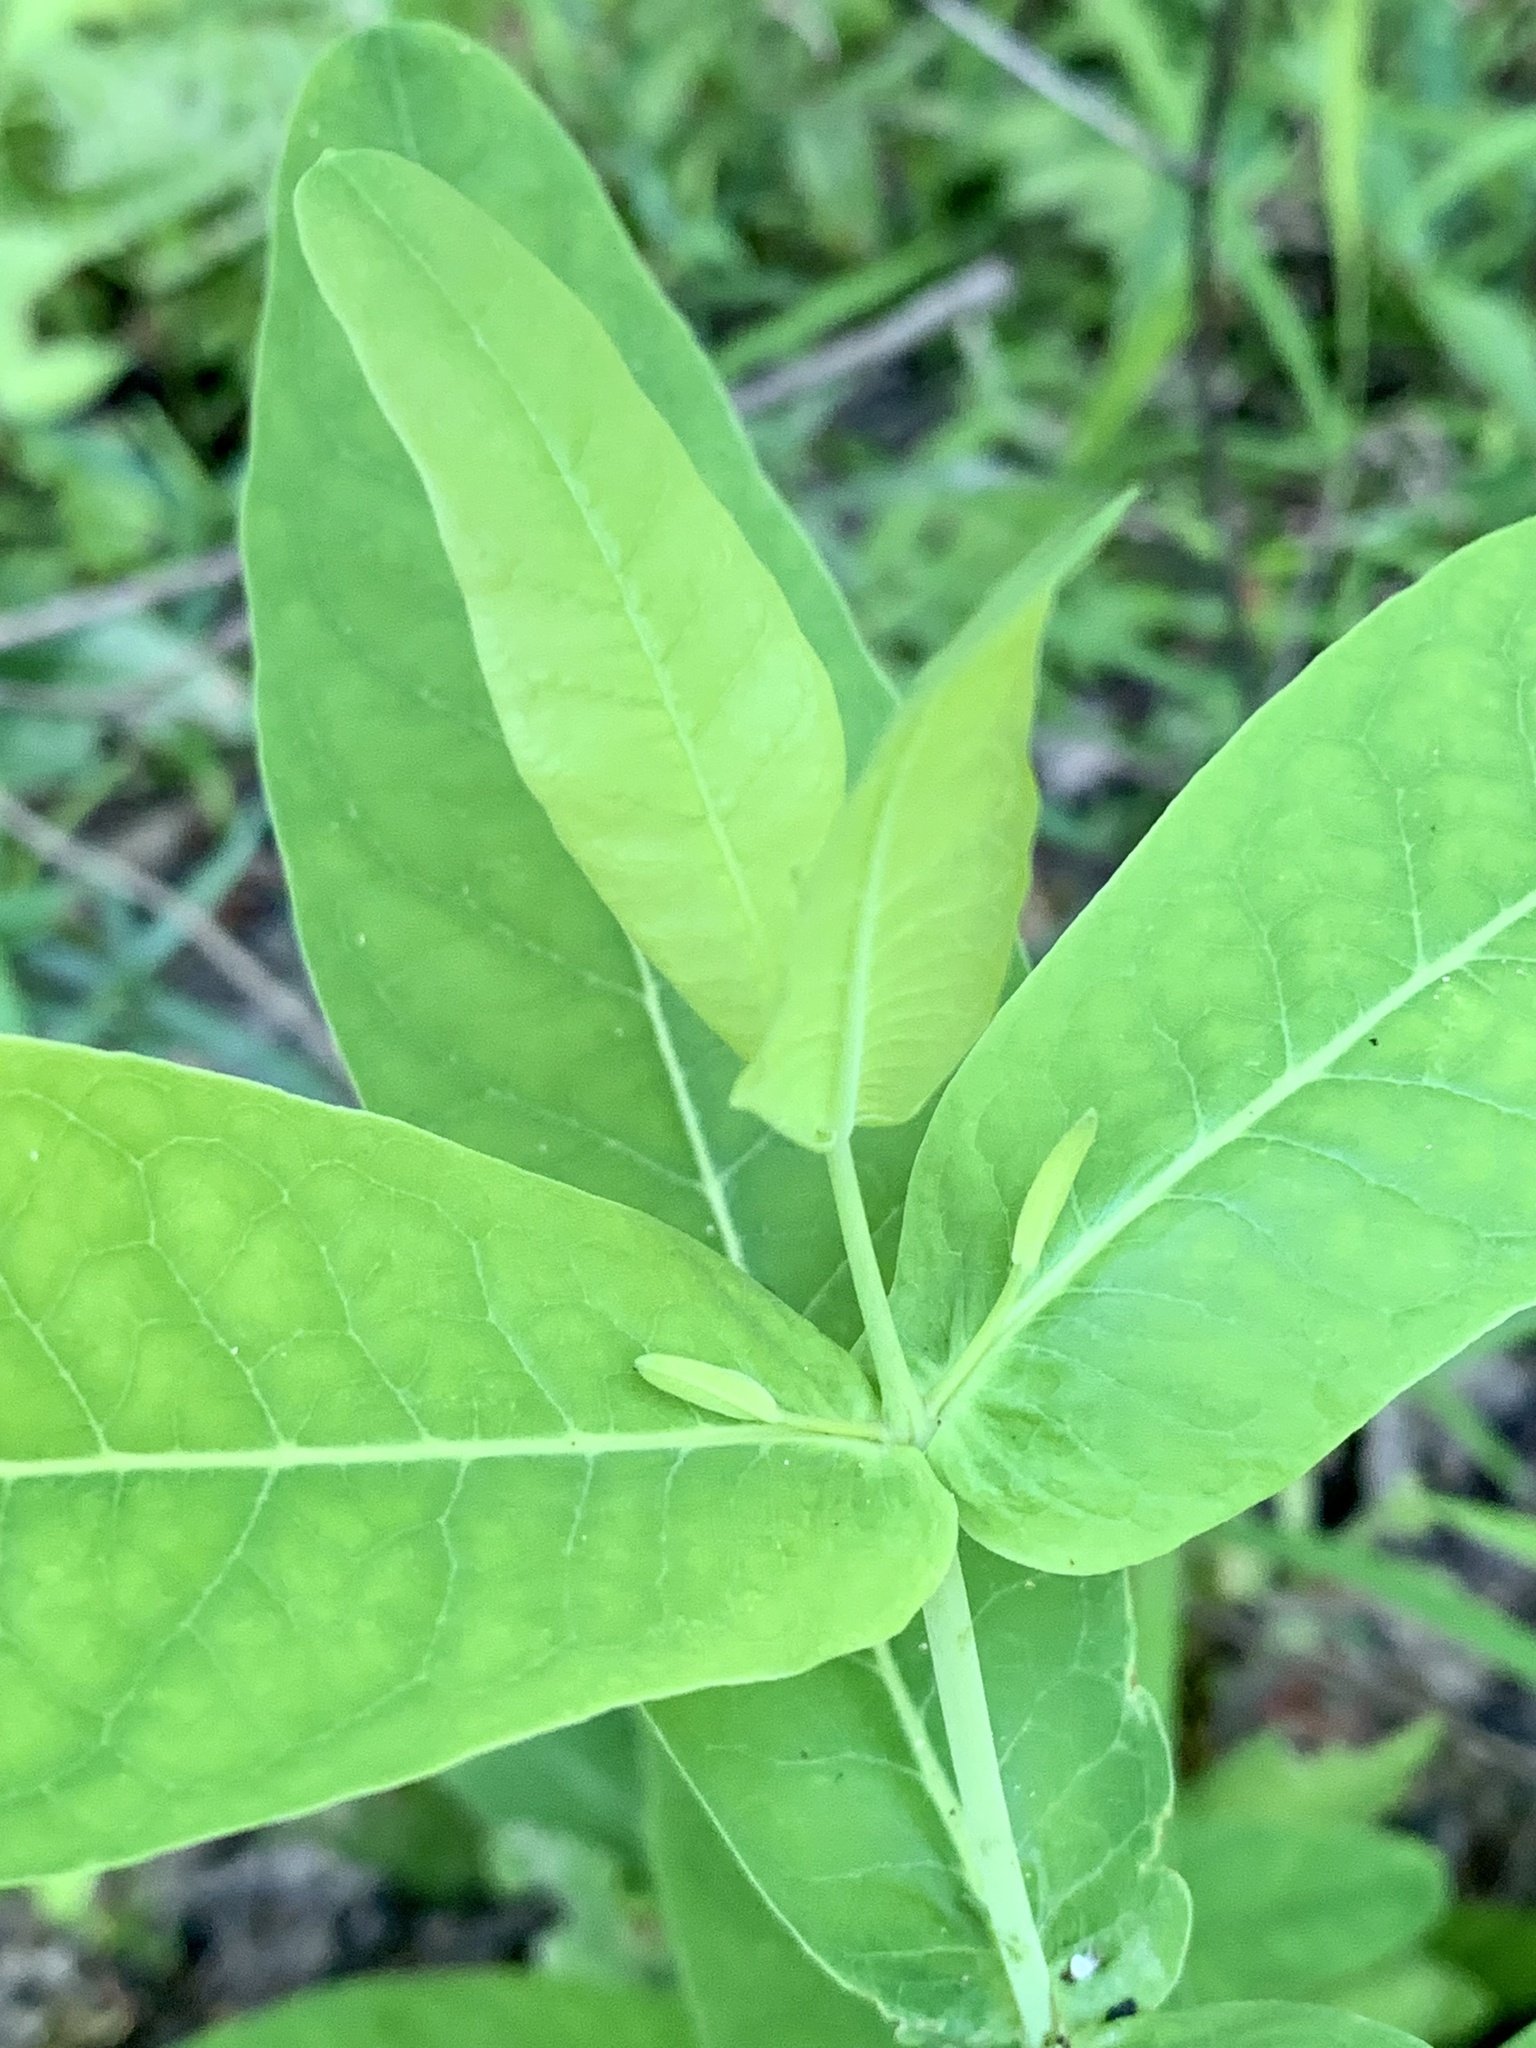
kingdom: Plantae
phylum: Tracheophyta
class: Magnoliopsida
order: Malpighiales
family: Hypericaceae
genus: Triadenum
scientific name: Triadenum tubulosum
